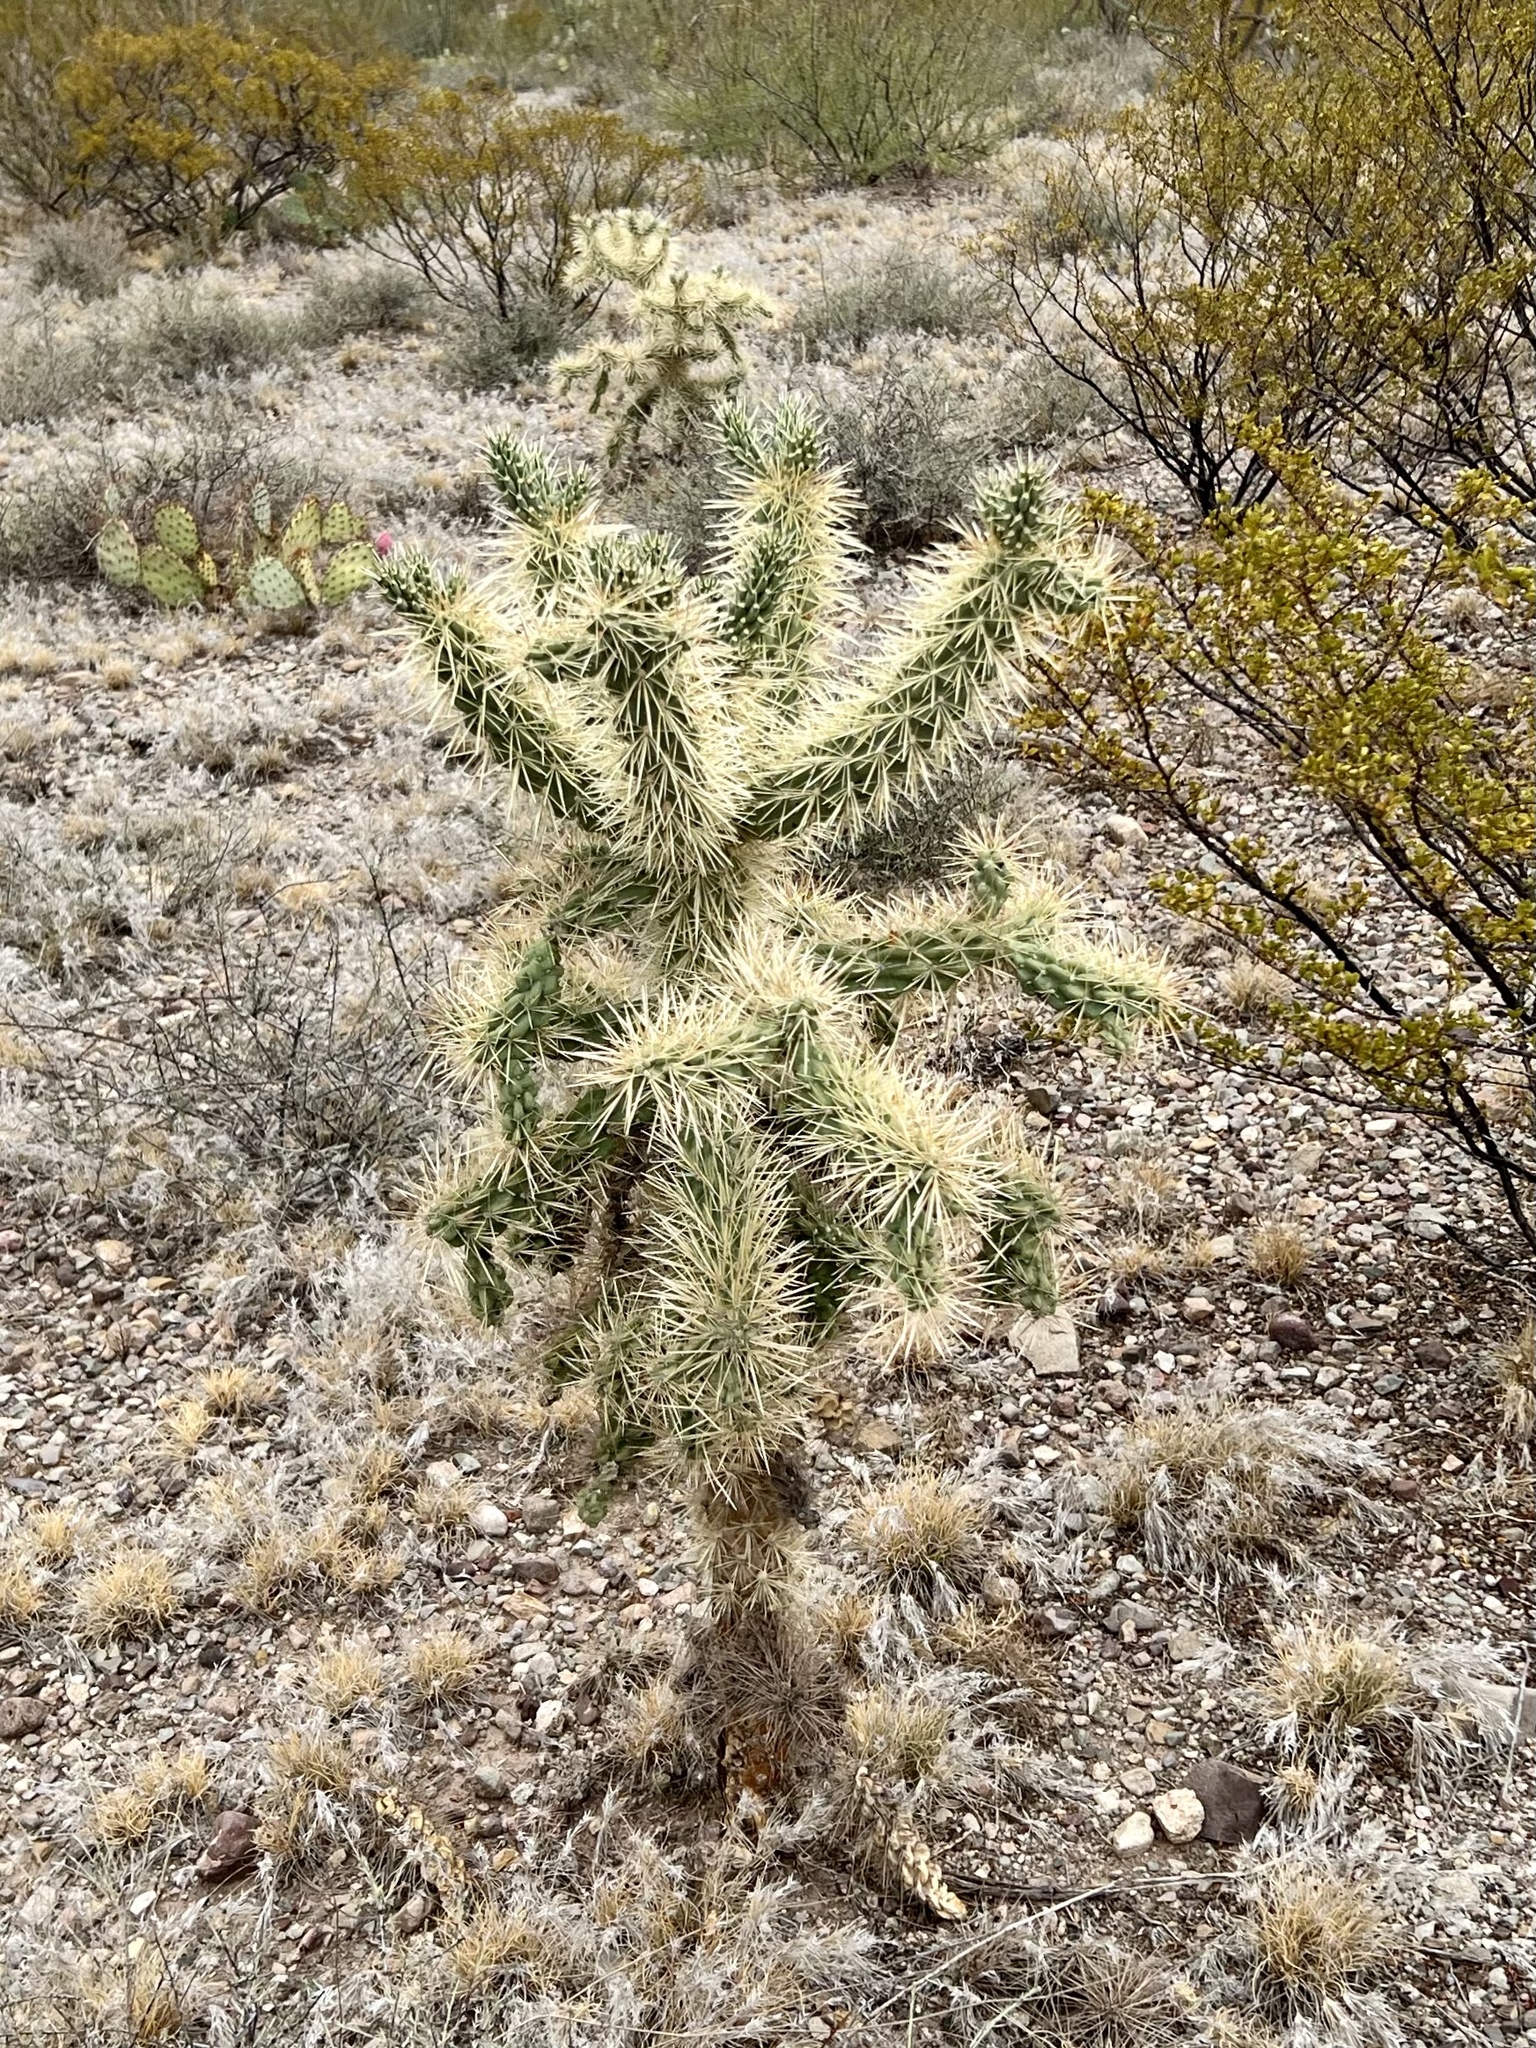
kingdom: Plantae
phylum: Tracheophyta
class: Magnoliopsida
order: Caryophyllales
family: Cactaceae
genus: Cylindropuntia
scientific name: Cylindropuntia fulgida
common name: Jumping cholla
